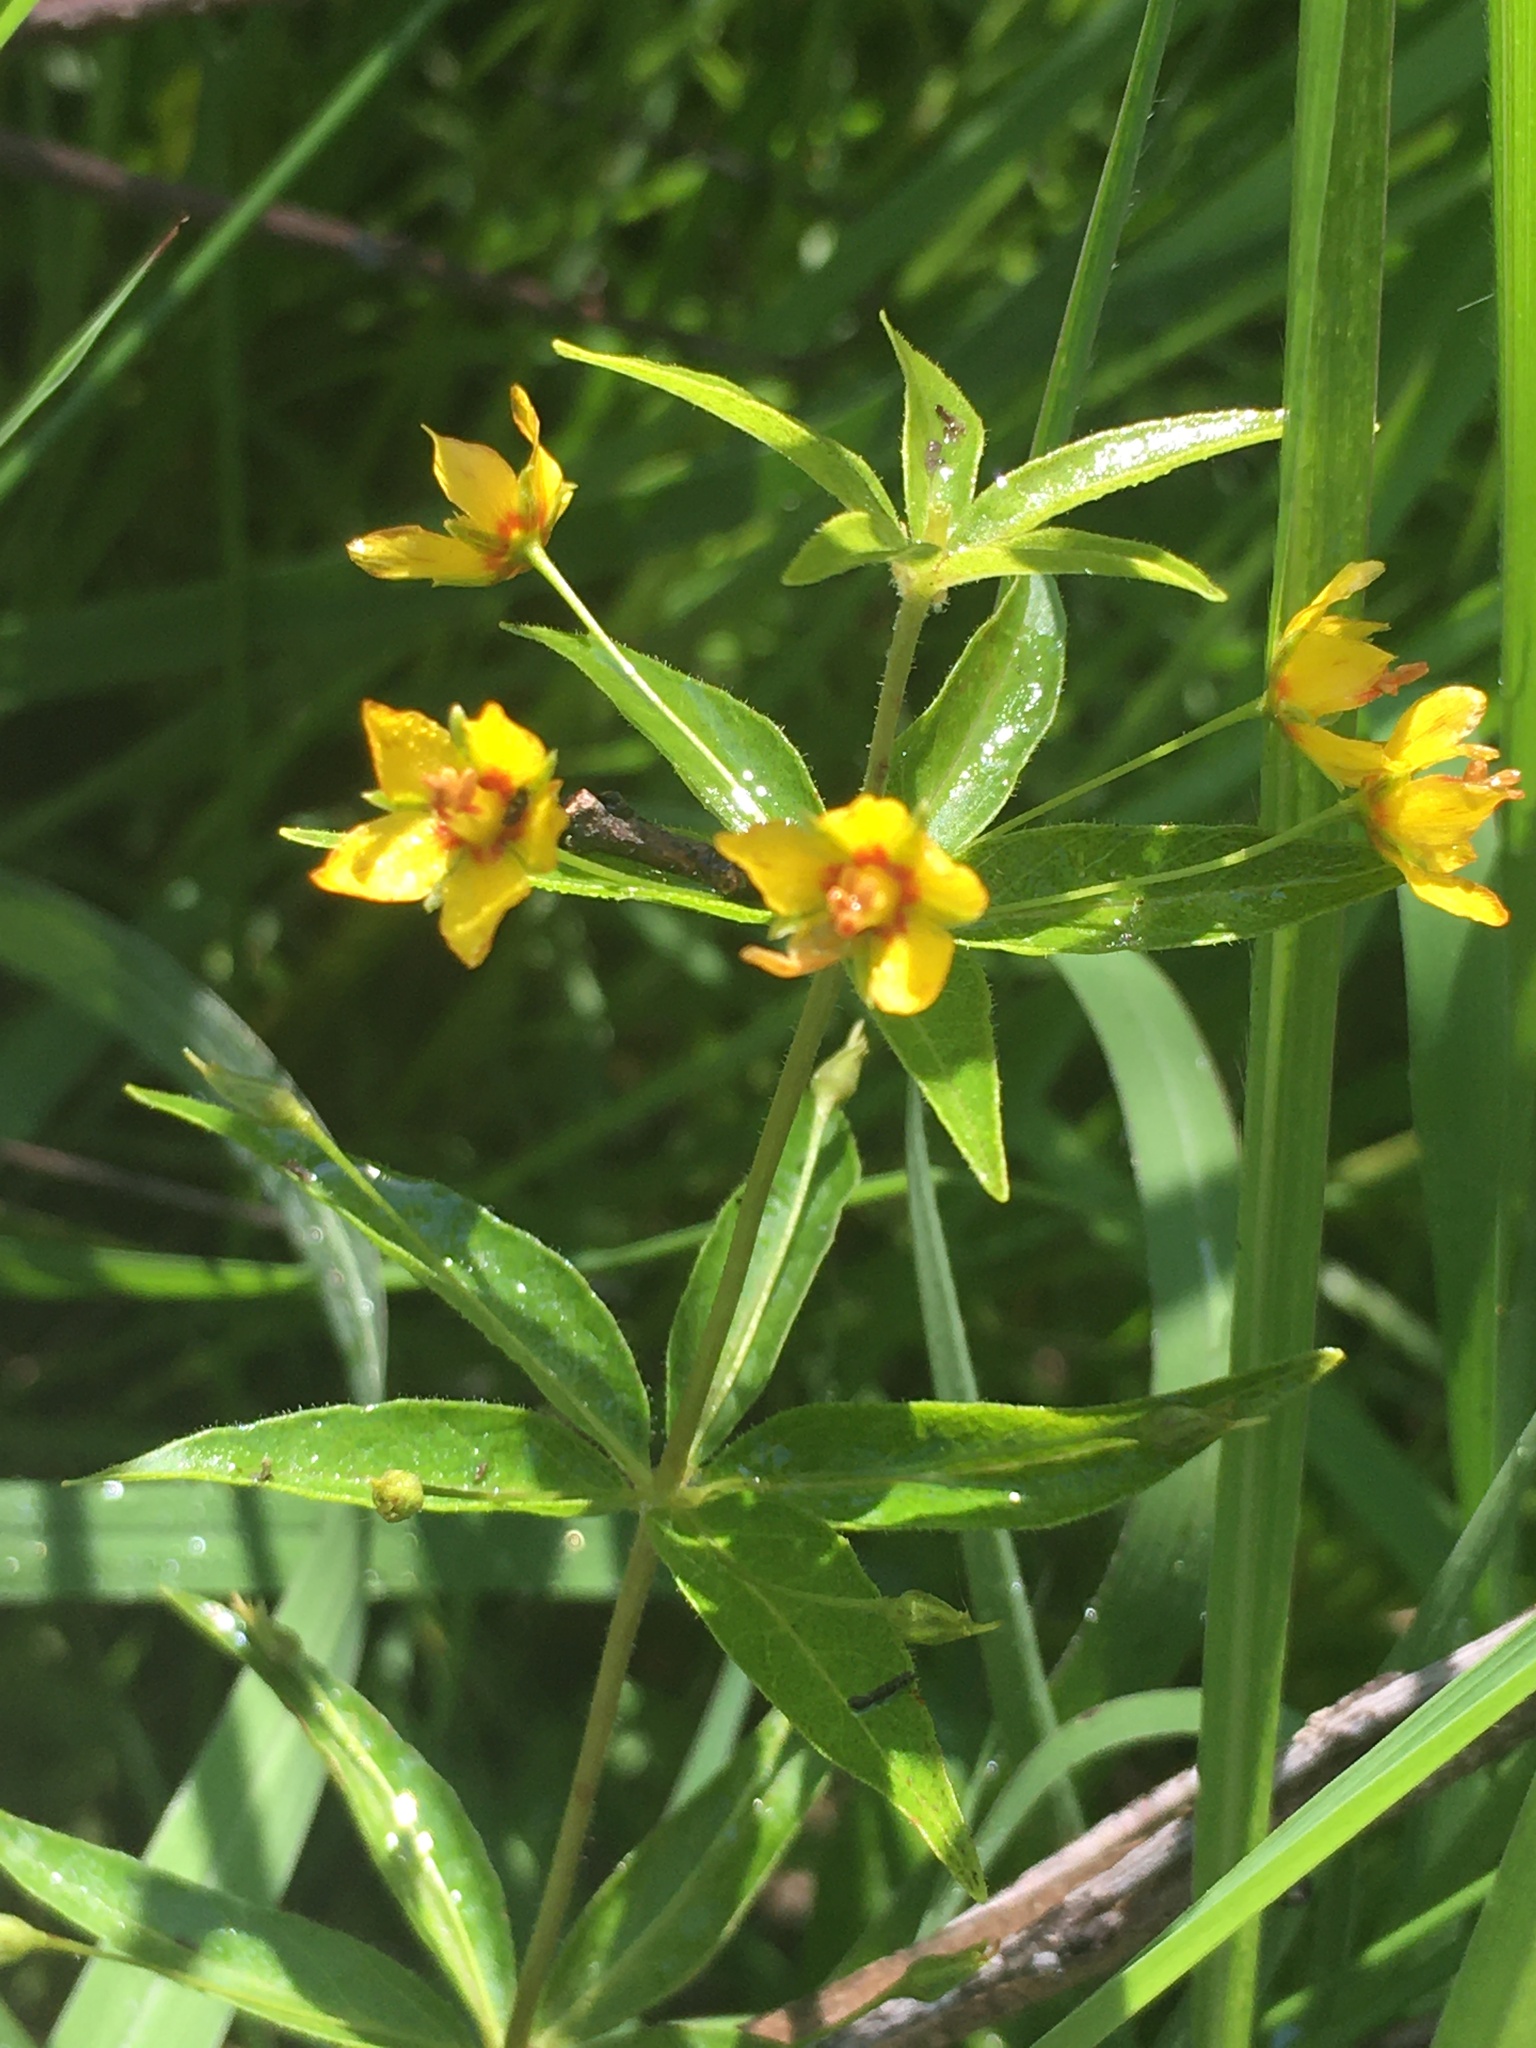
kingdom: Plantae
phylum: Tracheophyta
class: Magnoliopsida
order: Ericales
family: Primulaceae
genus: Lysimachia
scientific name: Lysimachia quadrifolia
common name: Whorled loosestrife
